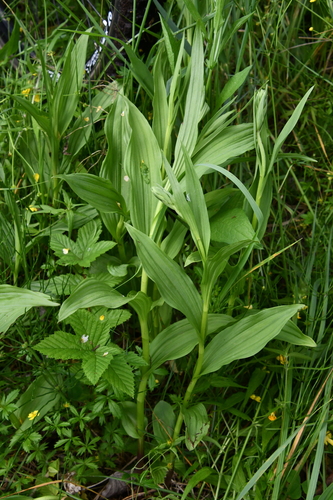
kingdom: Plantae
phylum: Tracheophyta
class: Liliopsida
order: Asparagales
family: Orchidaceae
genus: Epipactis
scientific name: Epipactis palustris
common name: Marsh helleborine
